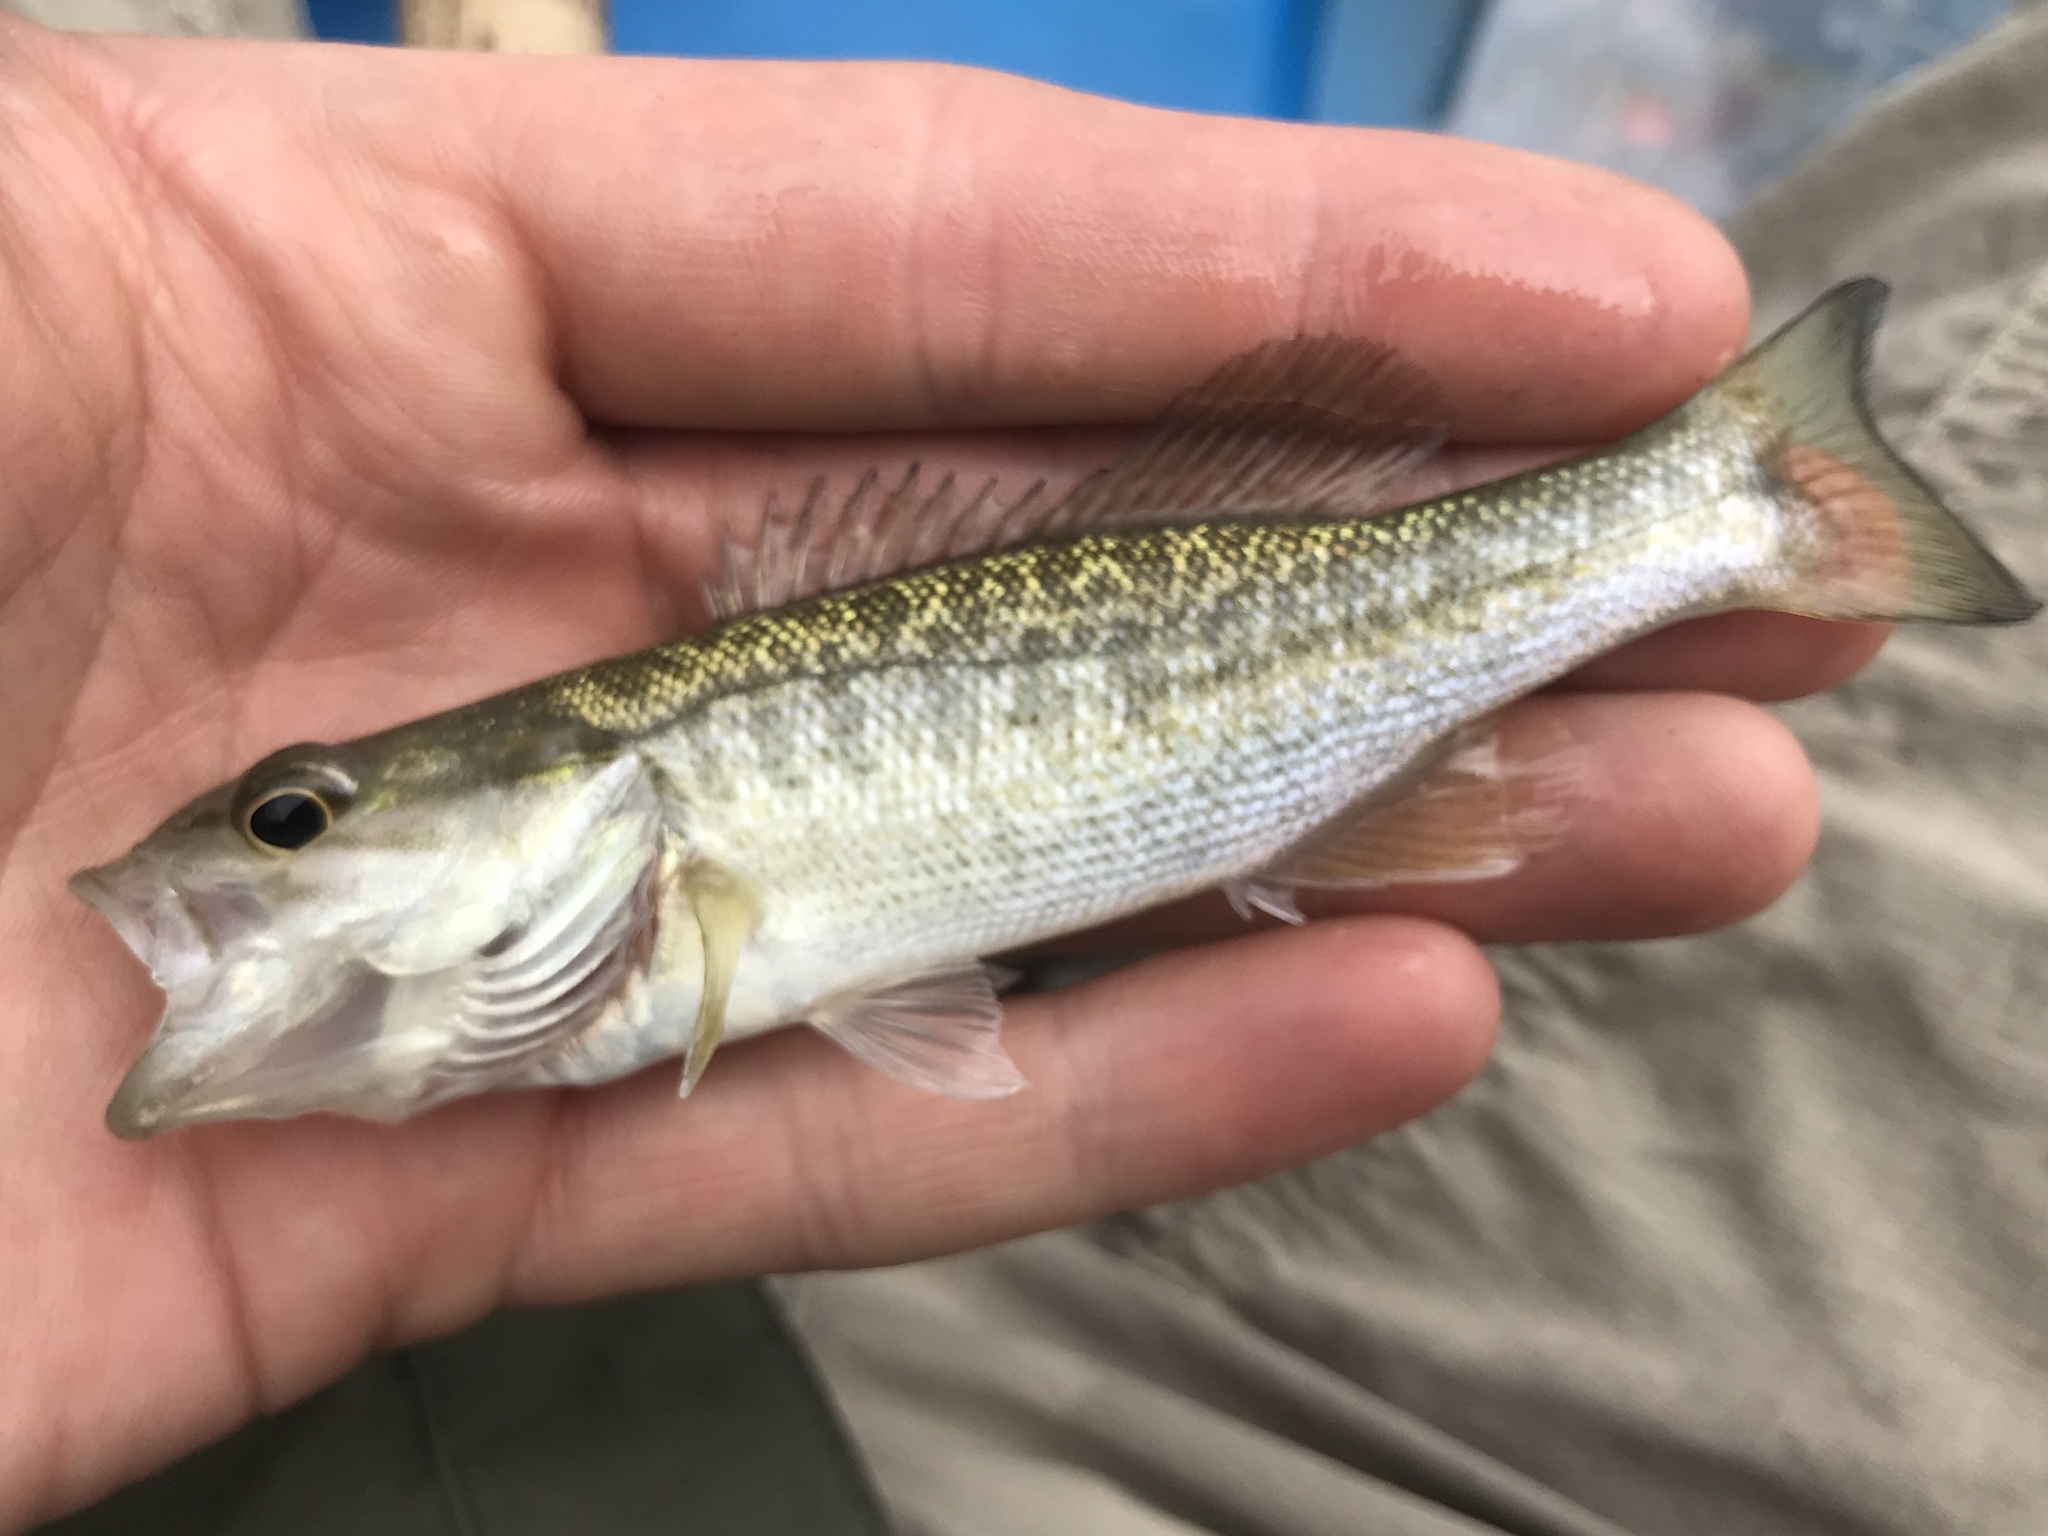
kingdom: Animalia
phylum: Chordata
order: Perciformes
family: Centrarchidae
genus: Micropterus
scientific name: Micropterus treculii
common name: Guadalupe bass
